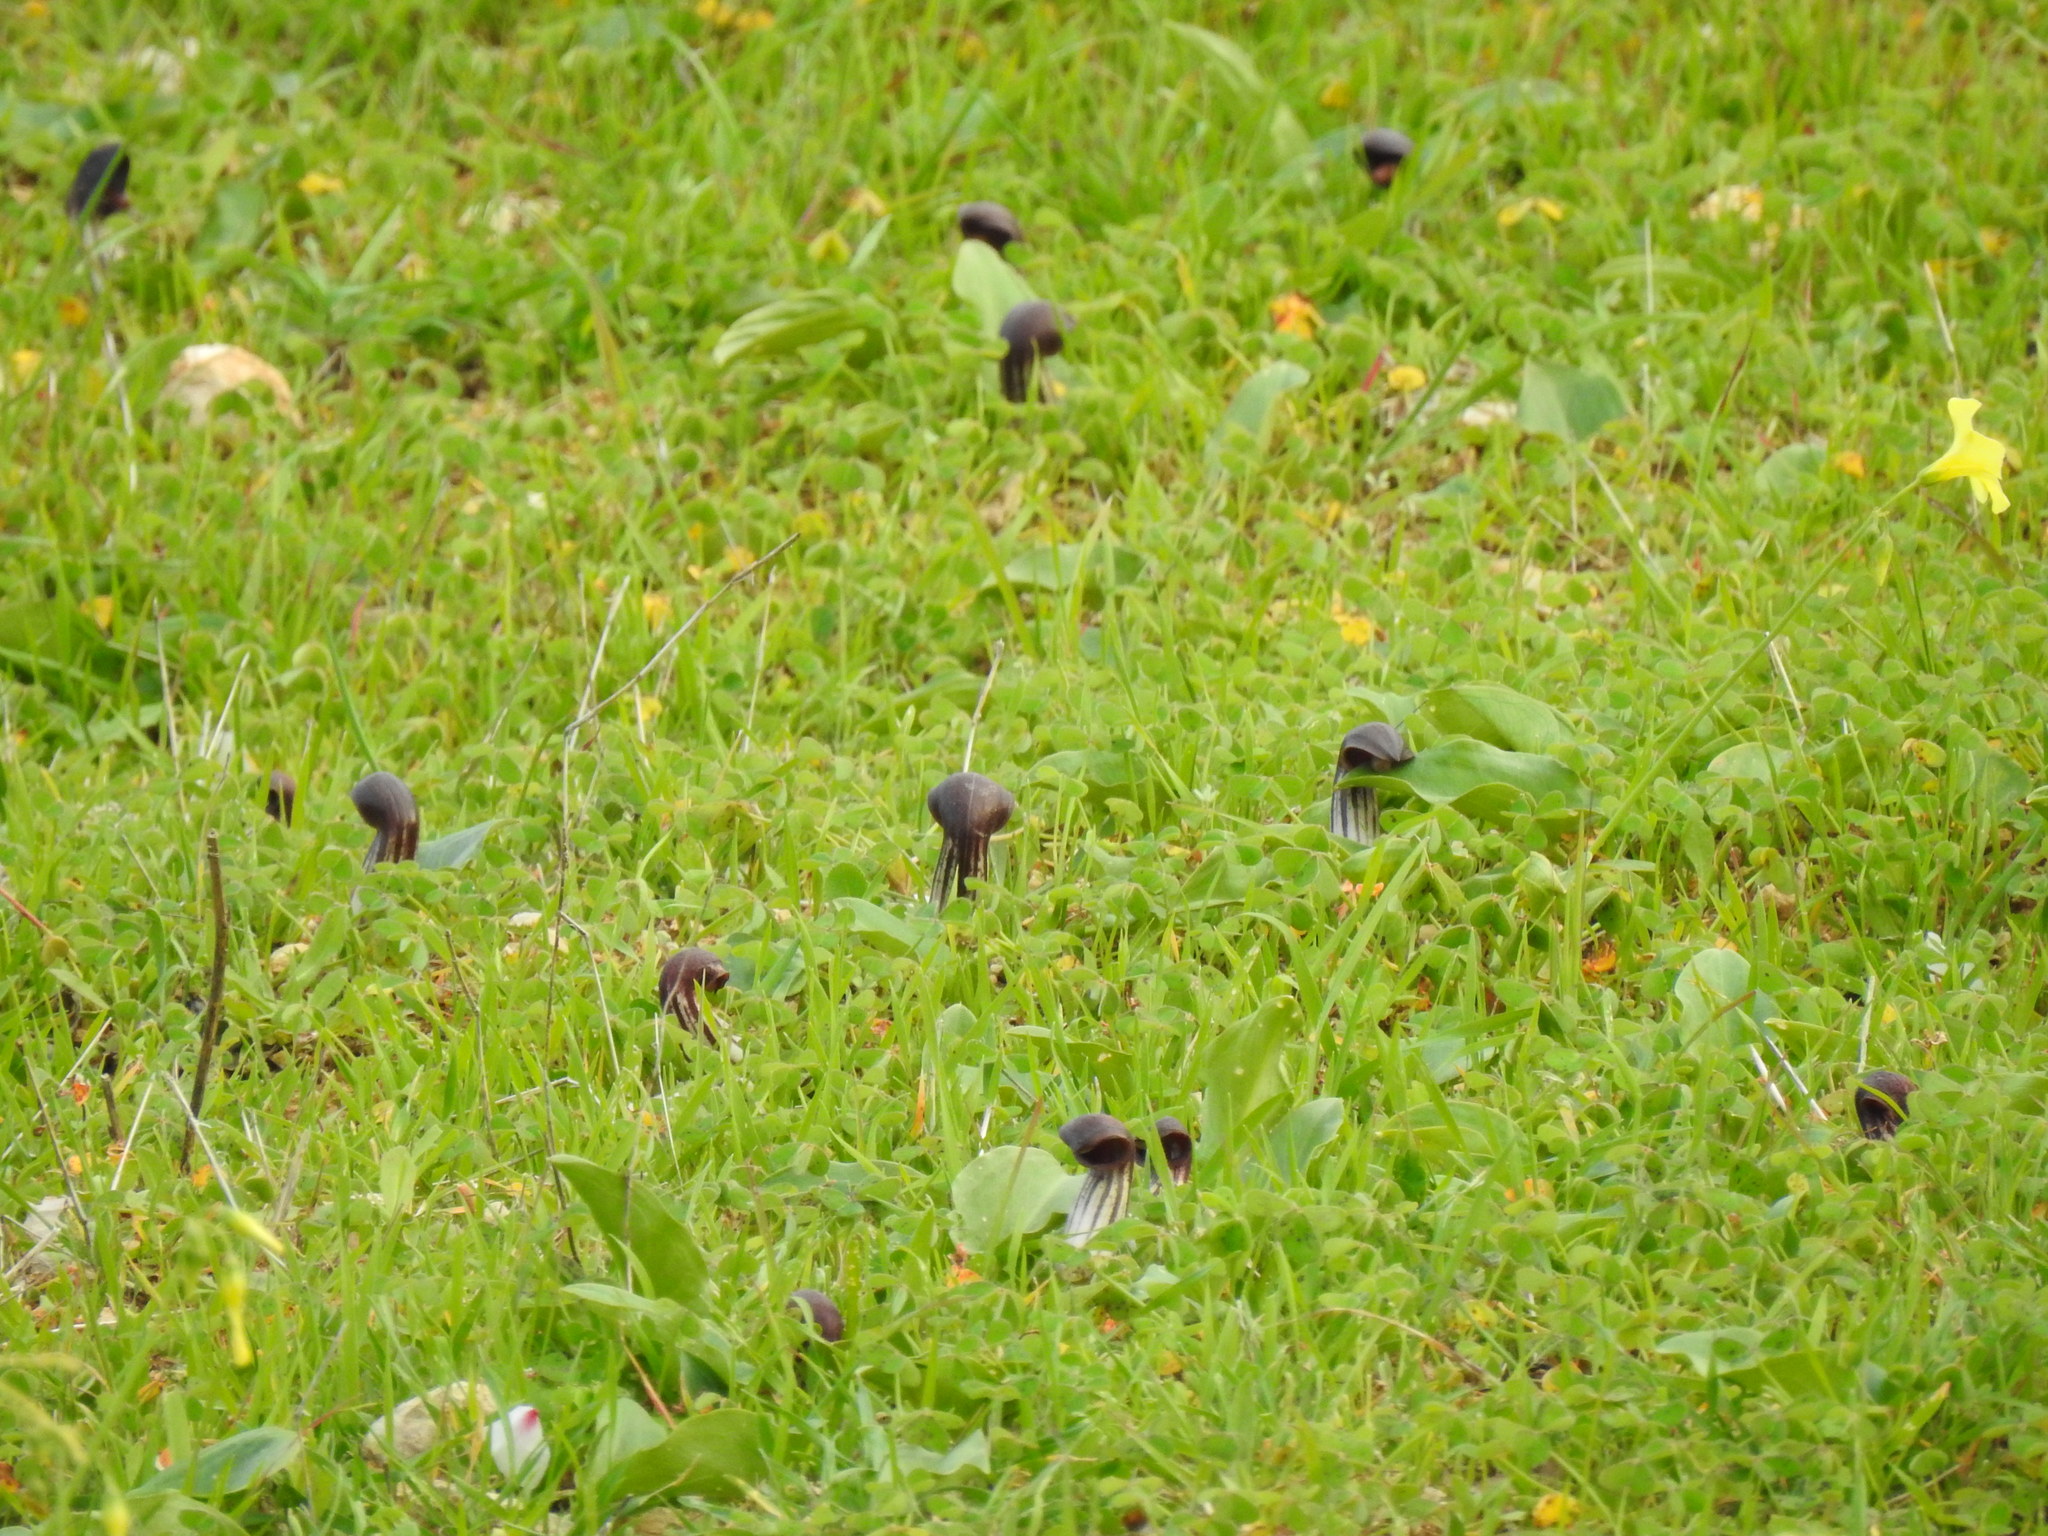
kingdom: Plantae
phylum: Tracheophyta
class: Liliopsida
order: Alismatales
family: Araceae
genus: Arisarum
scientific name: Arisarum simorrhinum
